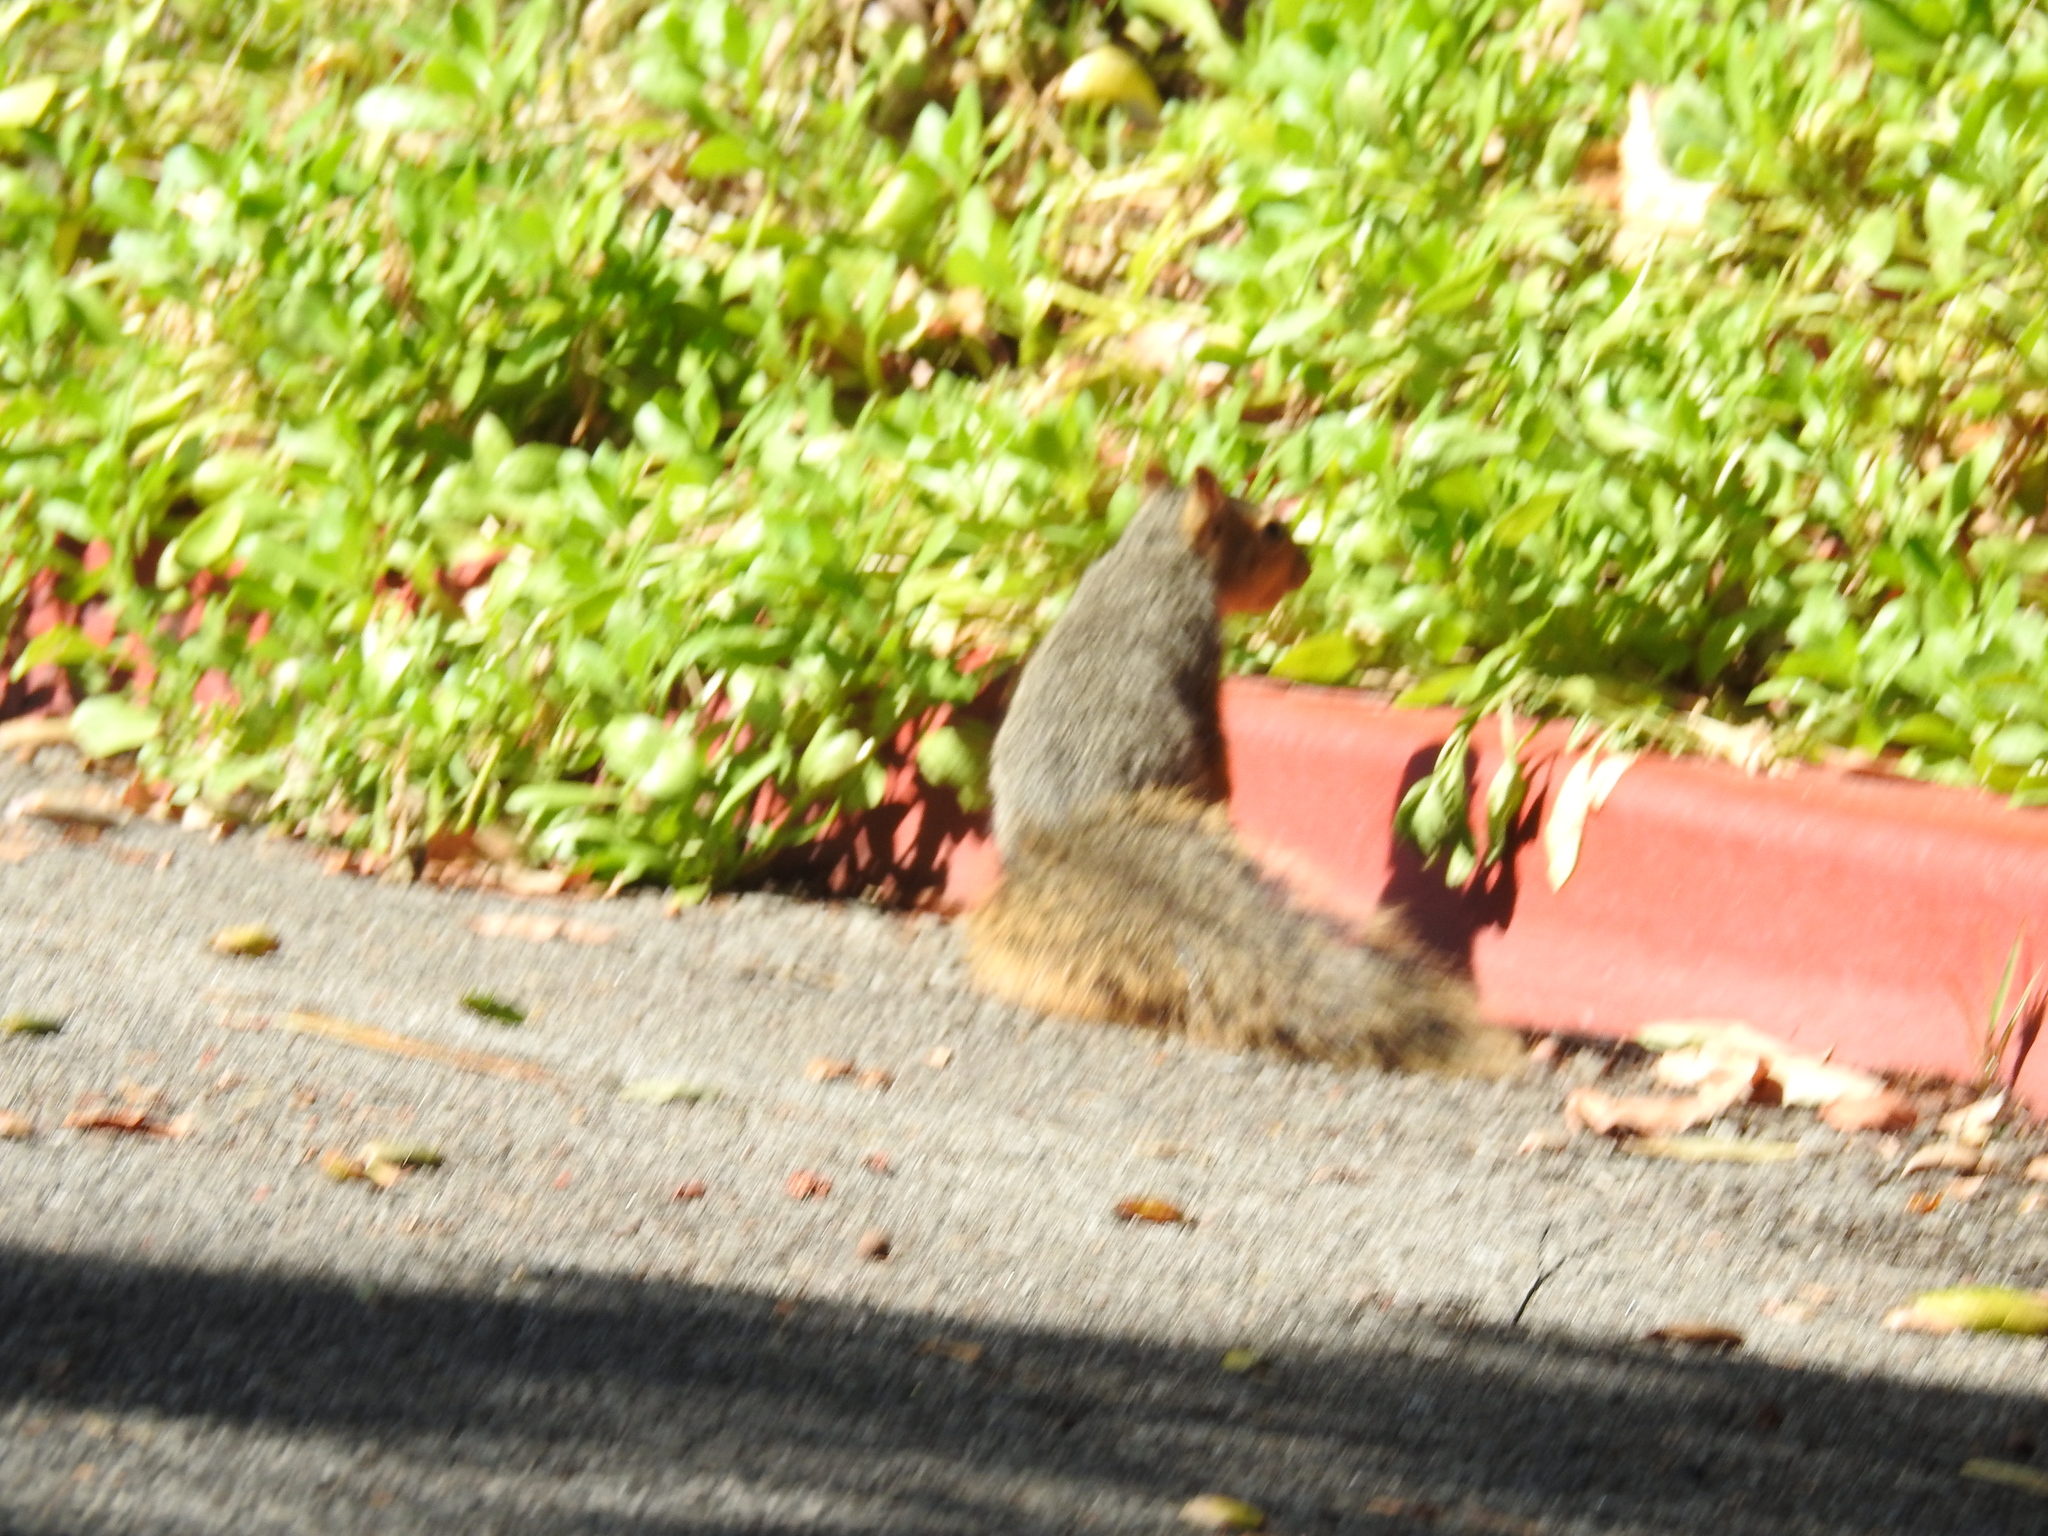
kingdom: Animalia
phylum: Chordata
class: Mammalia
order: Rodentia
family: Sciuridae
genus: Sciurus
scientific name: Sciurus niger
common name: Fox squirrel
